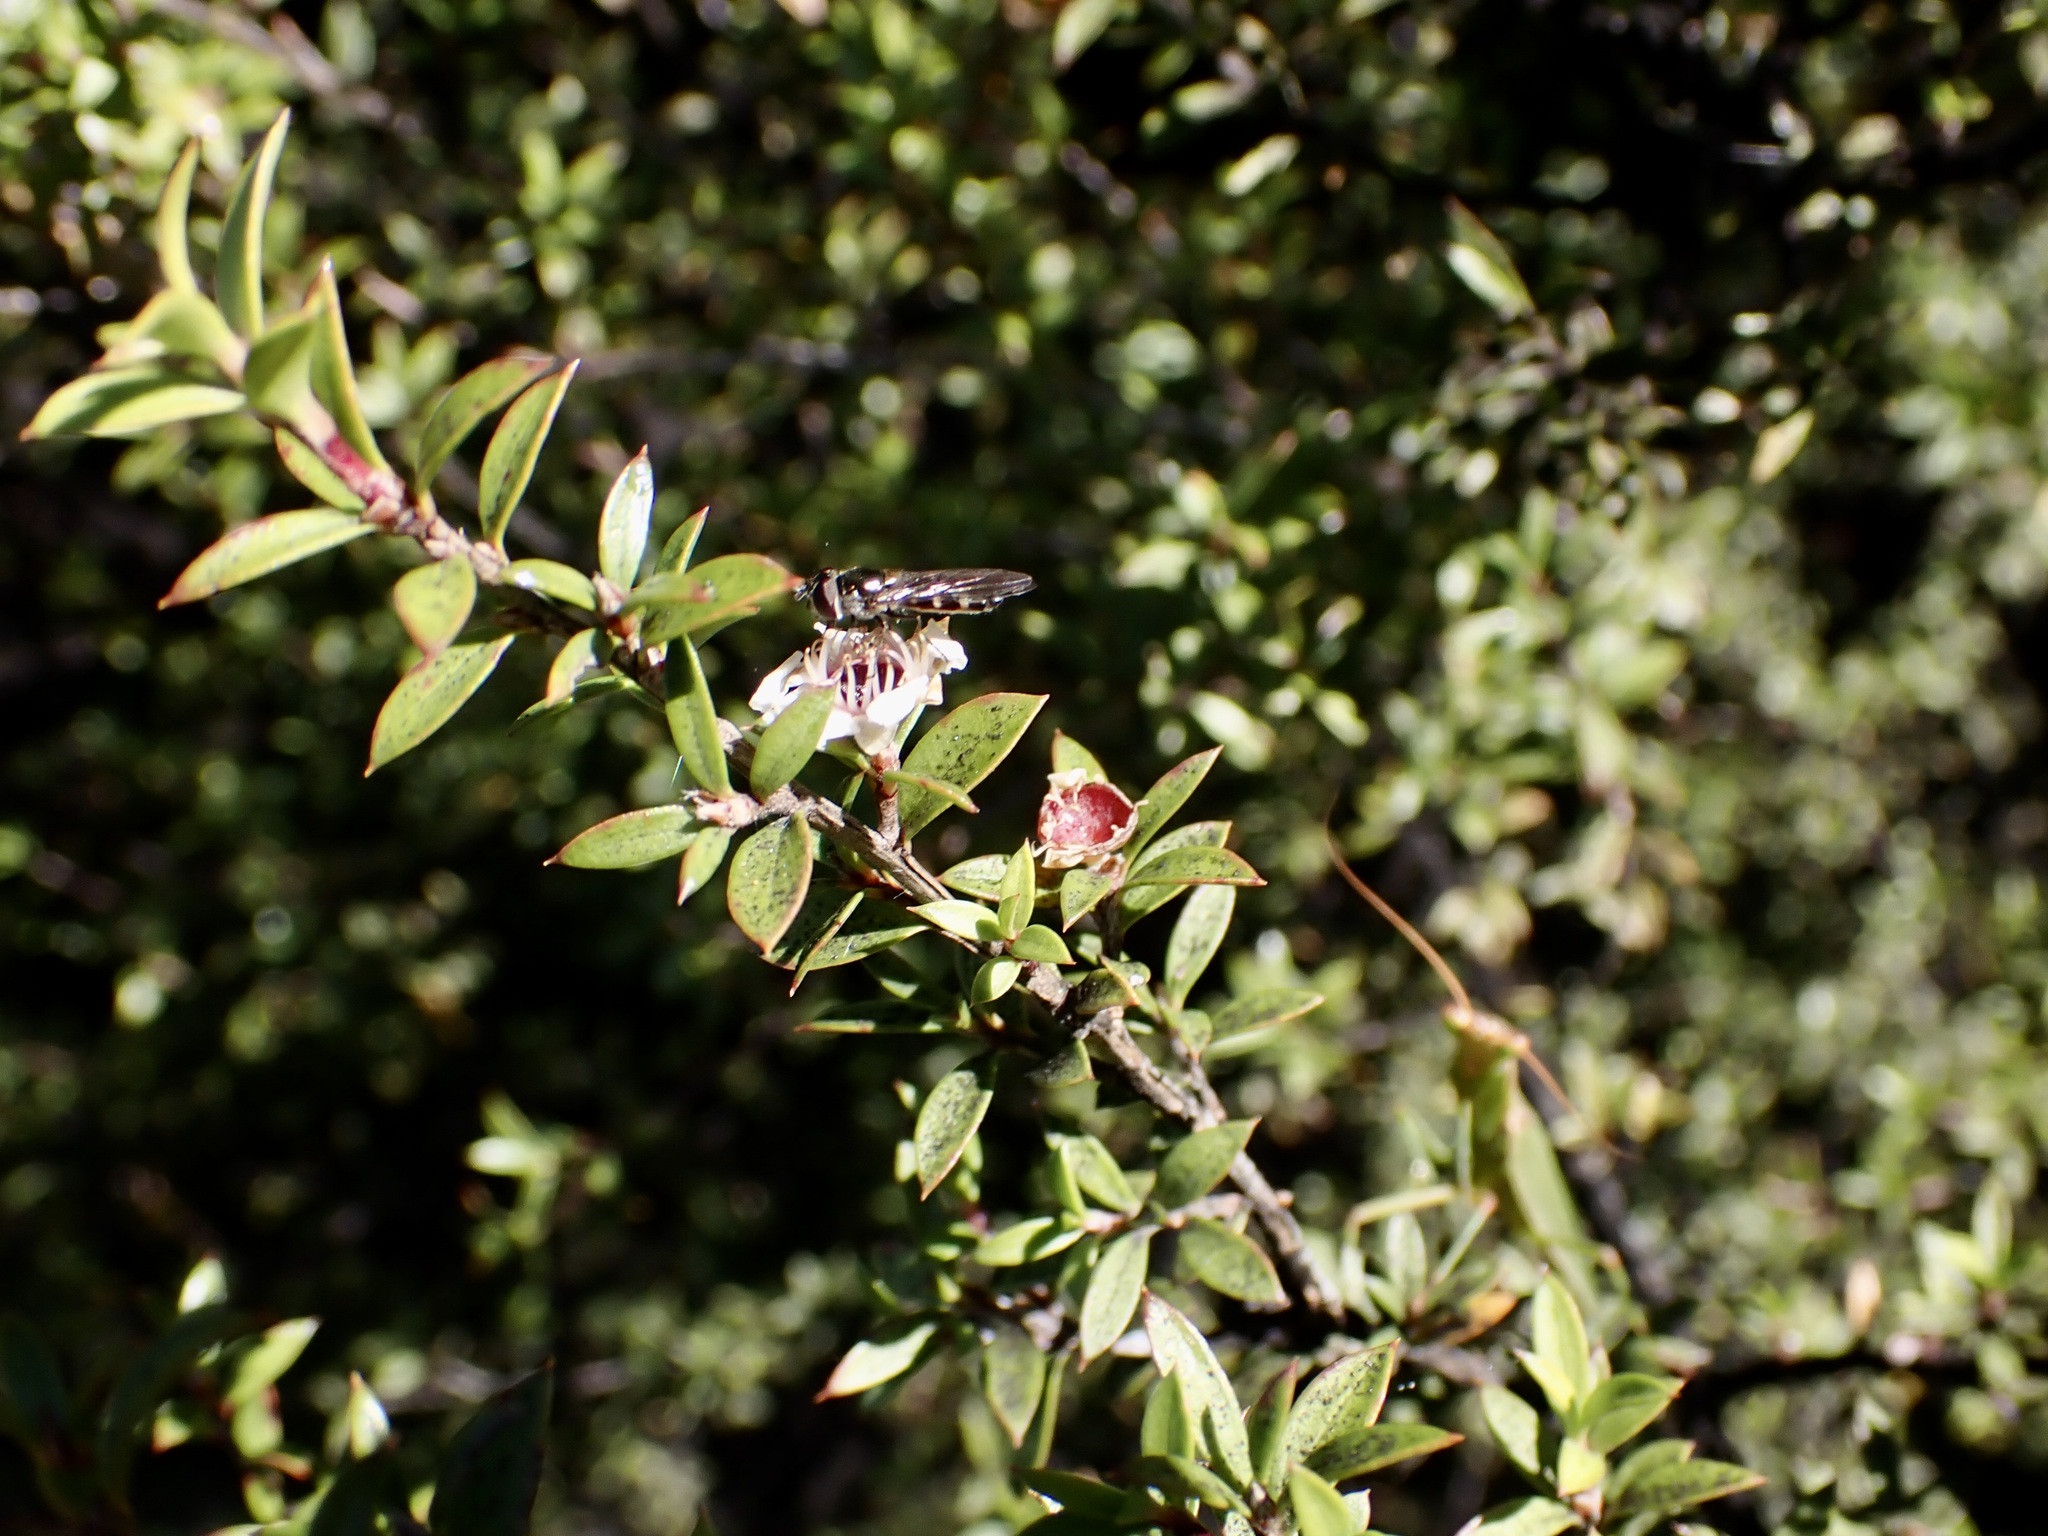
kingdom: Animalia
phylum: Arthropoda
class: Insecta
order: Diptera
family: Syrphidae
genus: Melangyna
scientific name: Melangyna novaezelandiae
